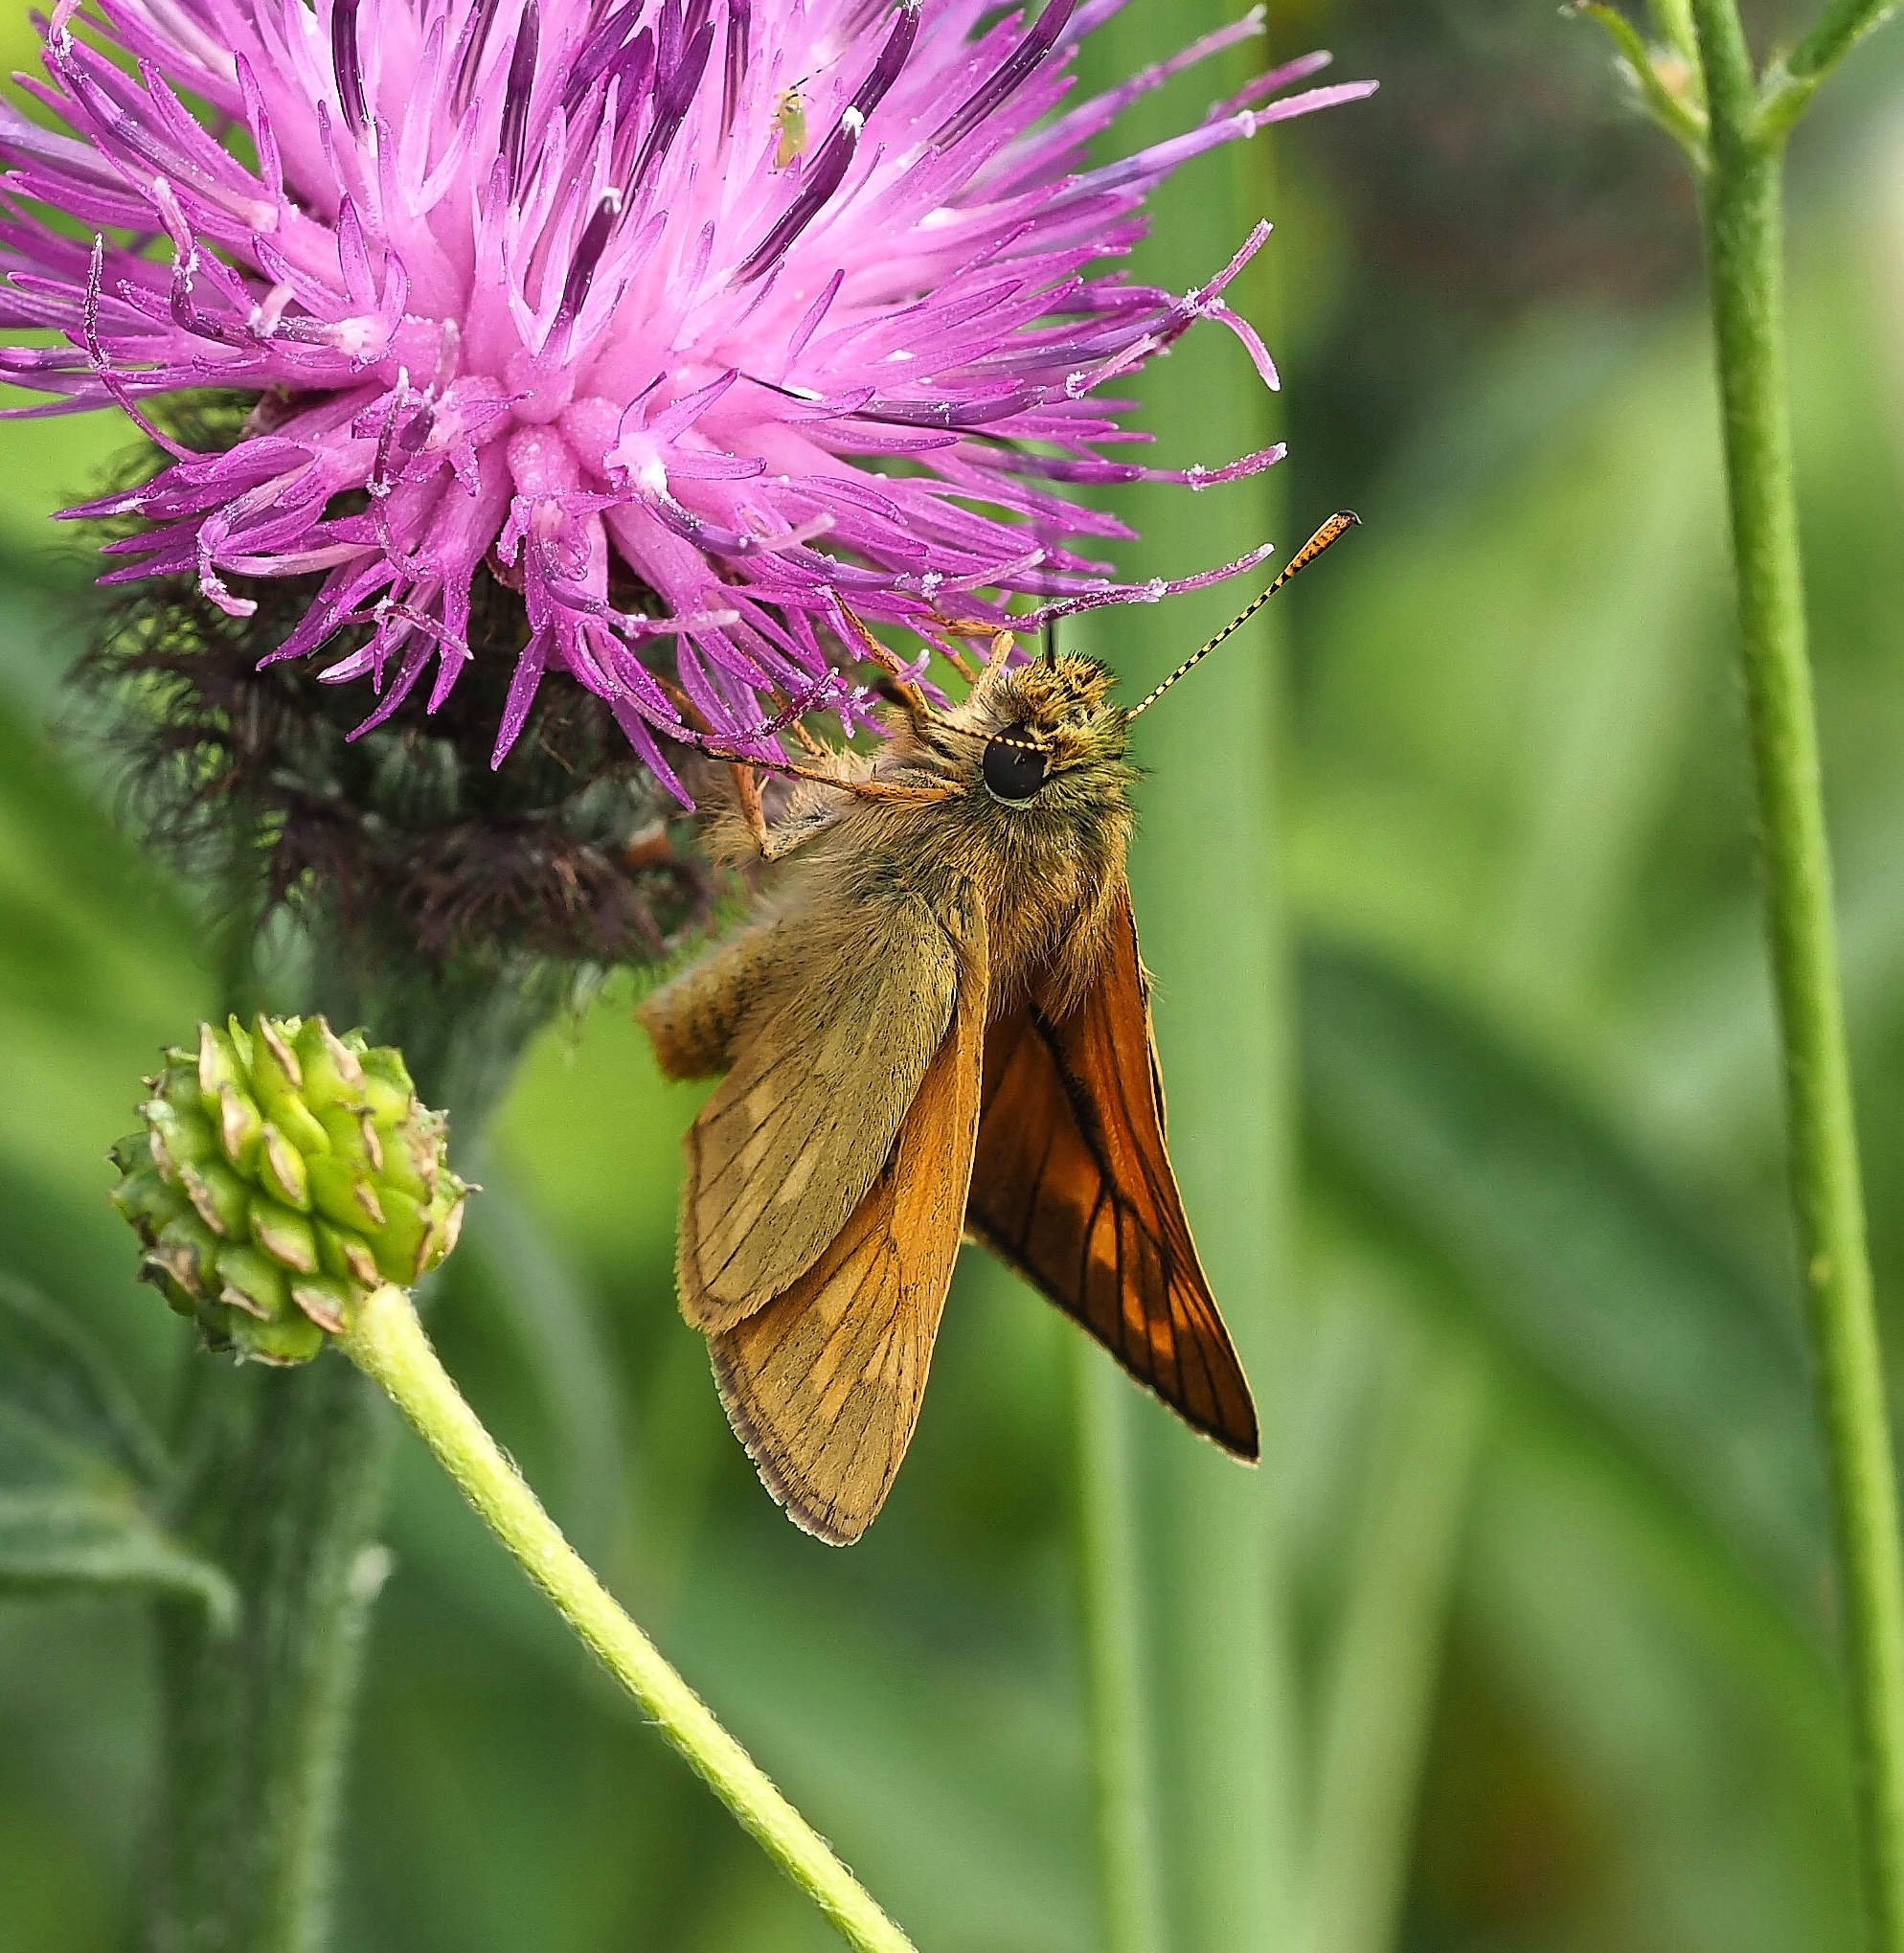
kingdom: Animalia
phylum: Arthropoda
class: Insecta
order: Lepidoptera
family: Hesperiidae
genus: Ochlodes
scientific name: Ochlodes venata
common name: Large skipper
